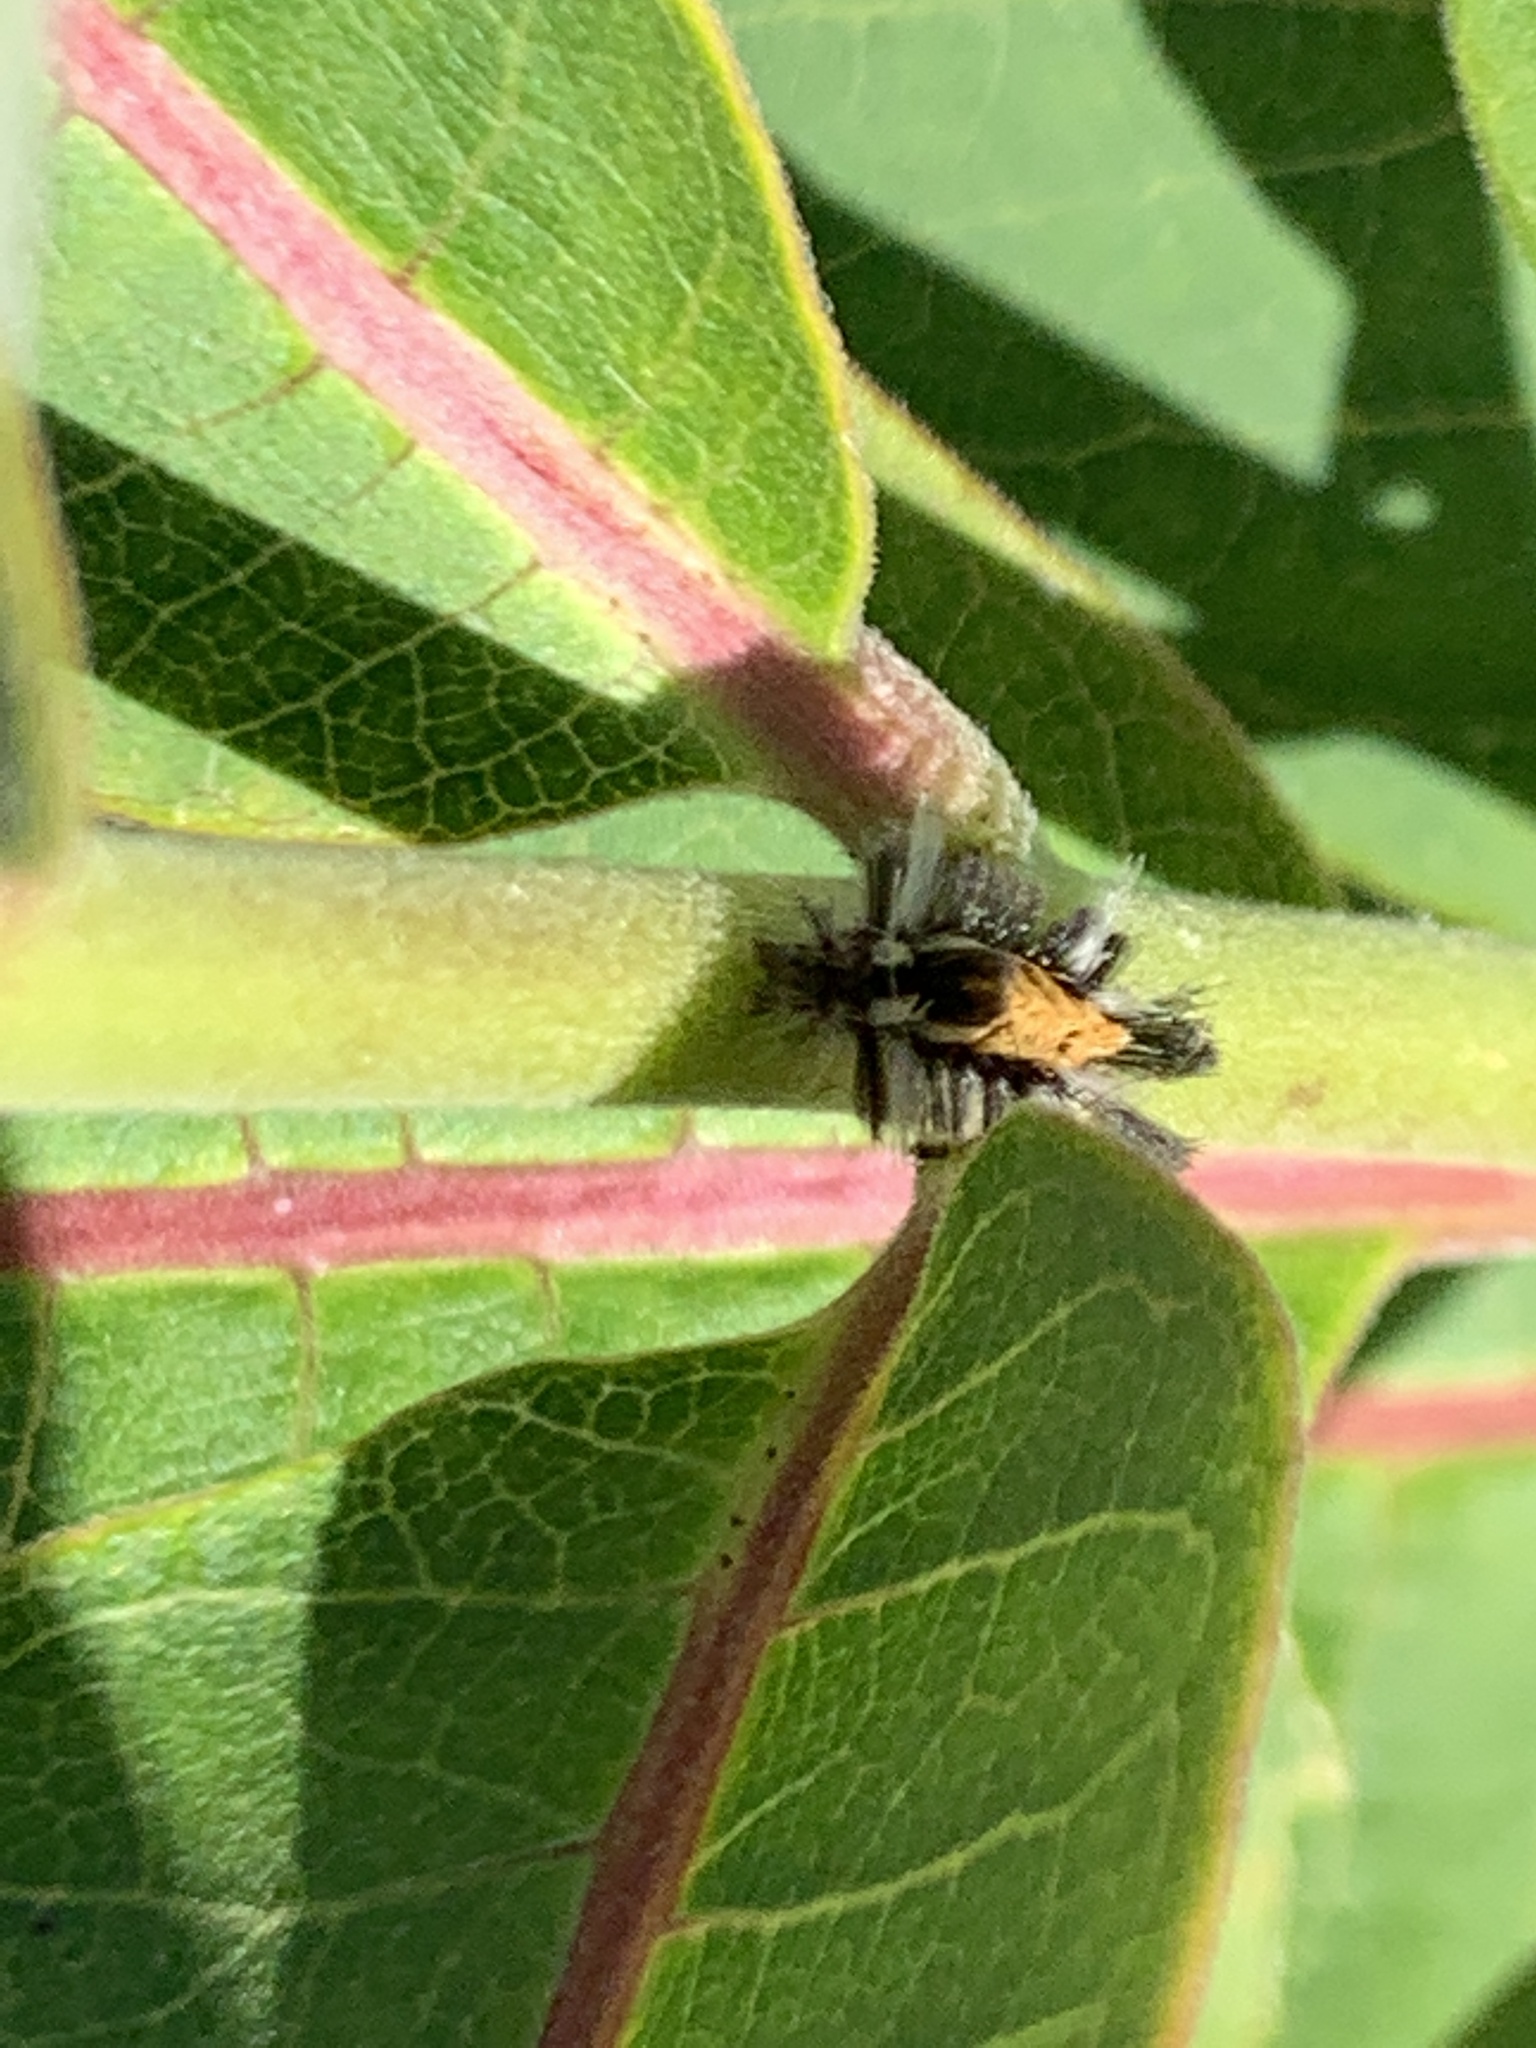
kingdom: Animalia
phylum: Arthropoda
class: Insecta
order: Lepidoptera
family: Erebidae
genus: Euchaetes
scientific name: Euchaetes egle
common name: Milkweed tussock moth
